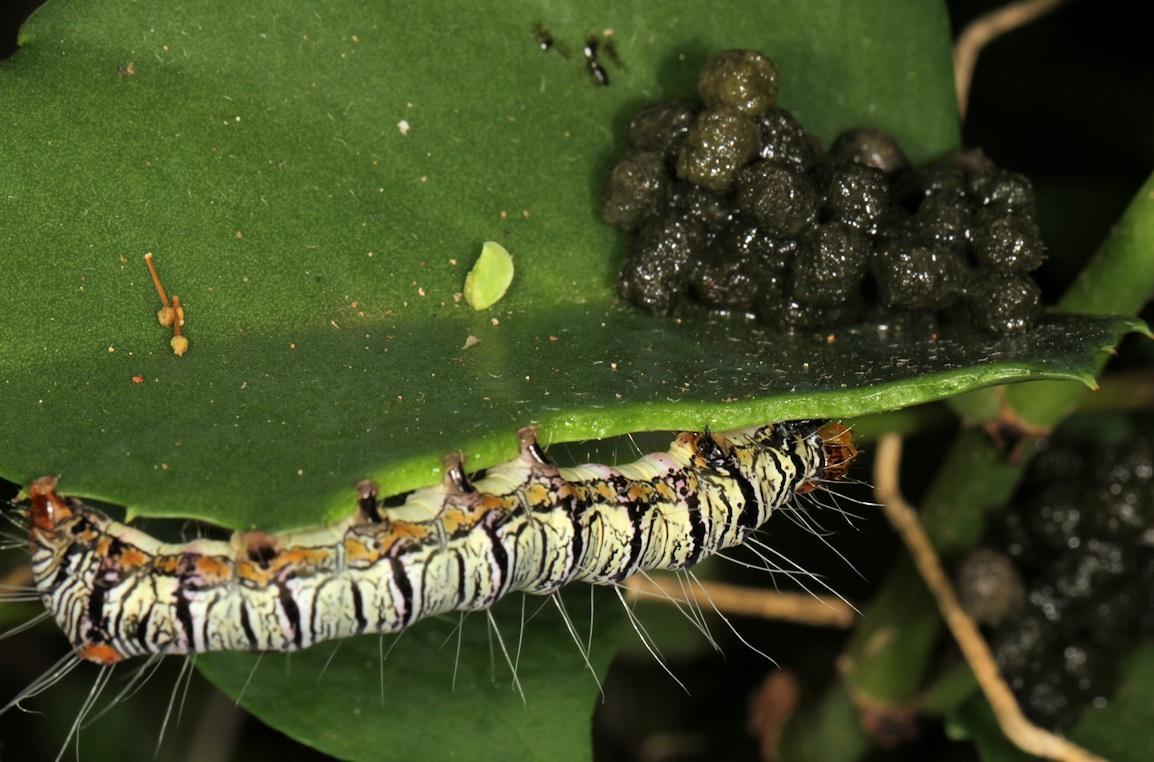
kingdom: Animalia
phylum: Arthropoda
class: Insecta
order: Lepidoptera
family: Noctuidae
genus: Agoma
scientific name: Agoma trimenii
